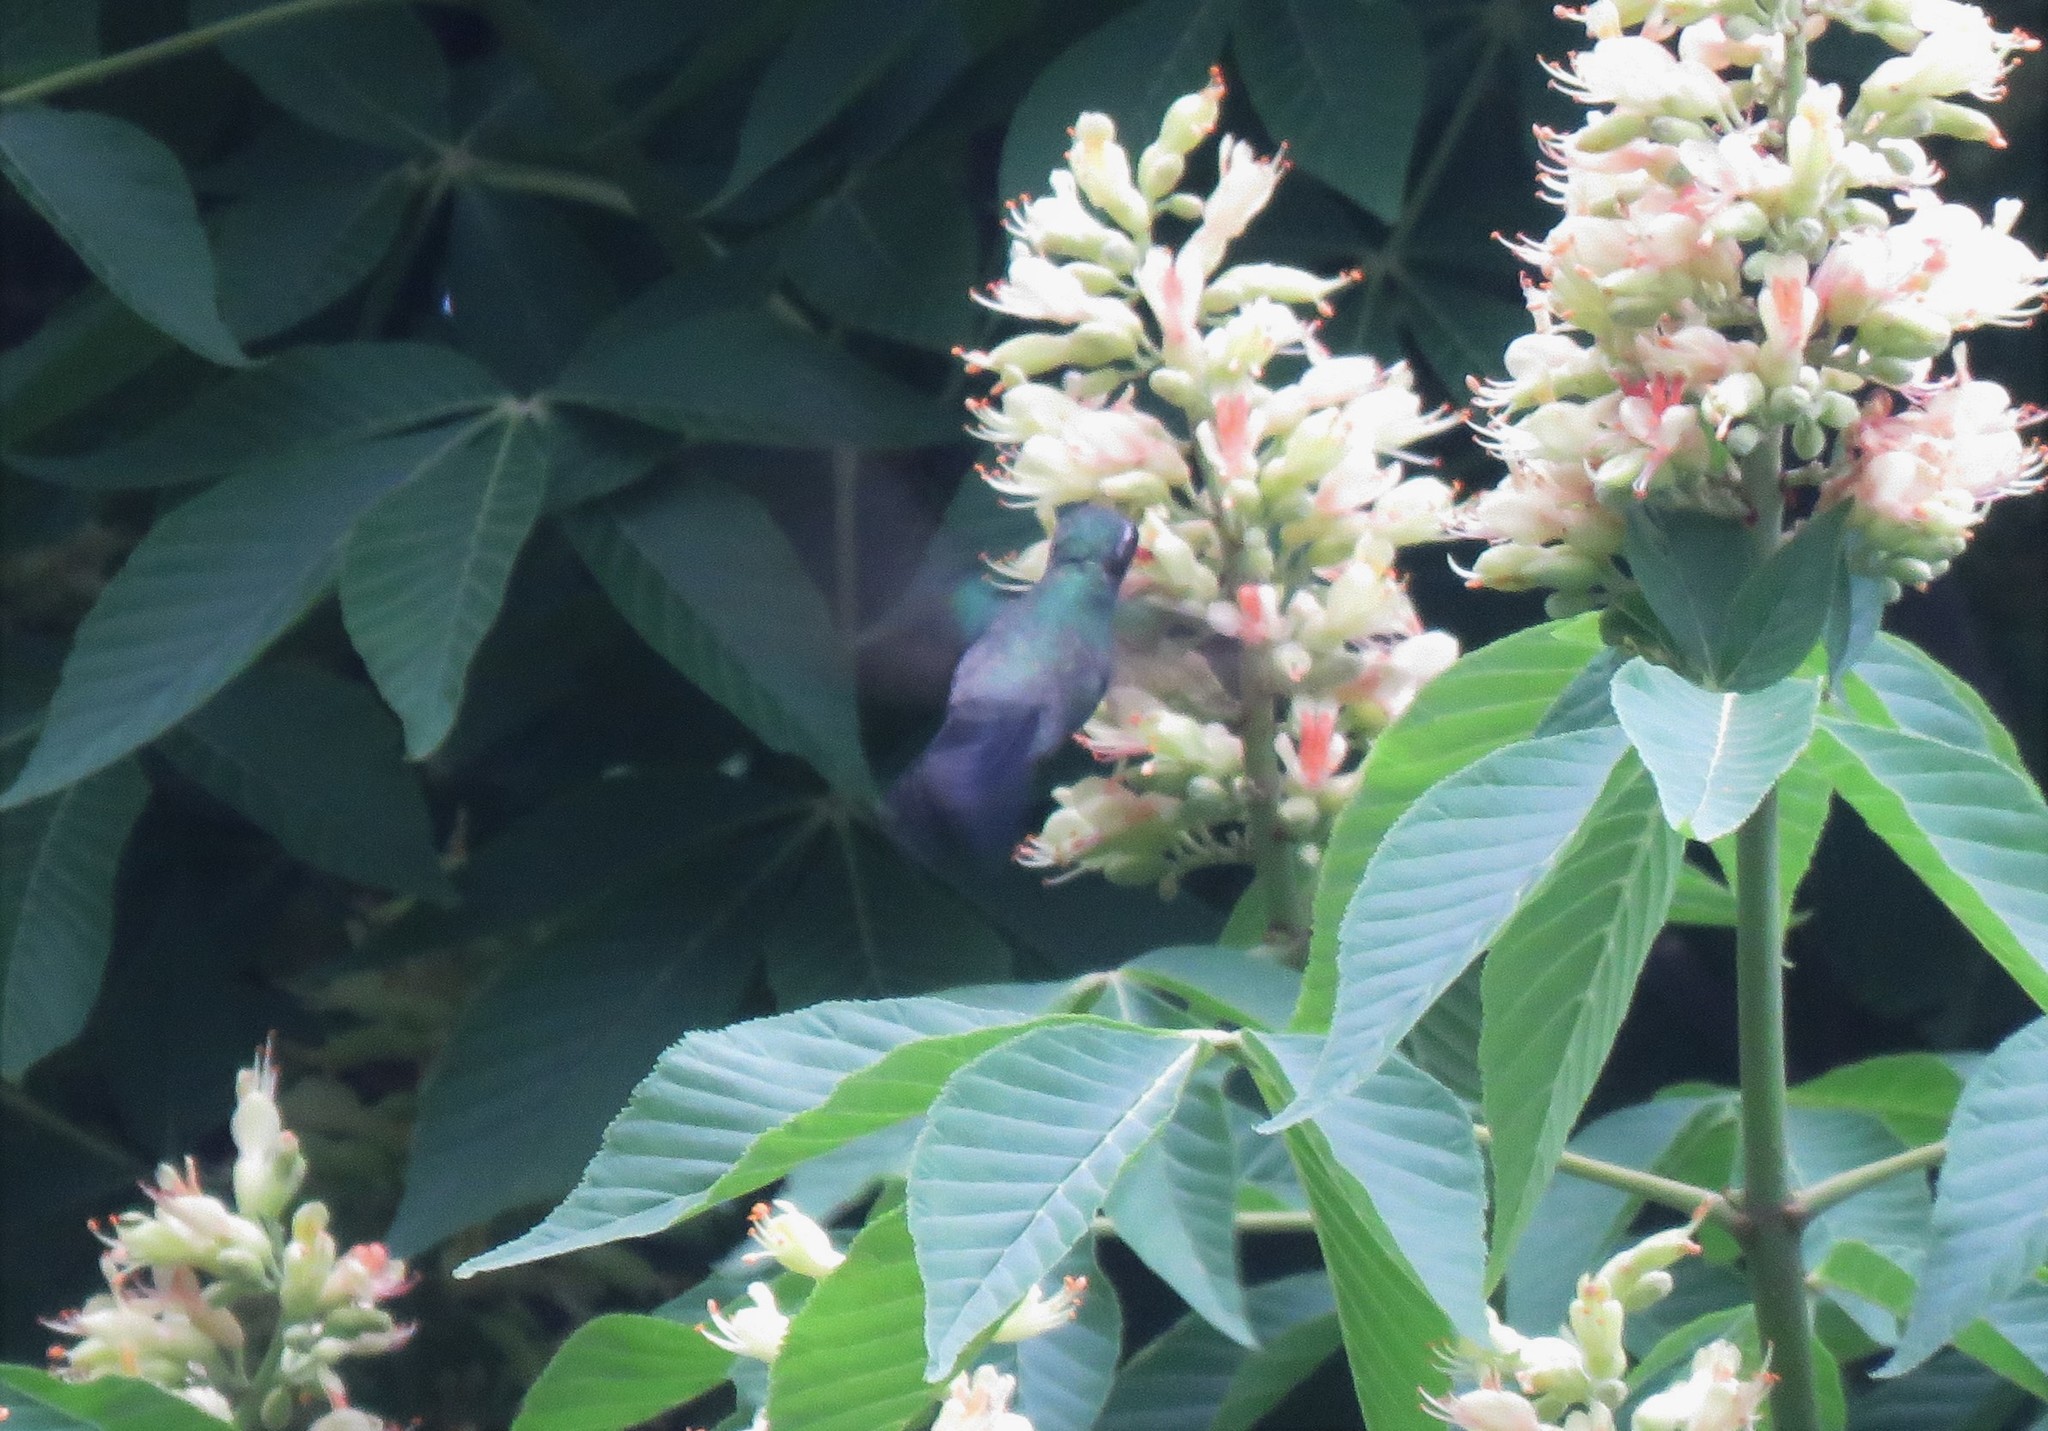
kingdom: Animalia
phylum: Chordata
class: Aves
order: Apodiformes
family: Trochilidae
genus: Cynanthus
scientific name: Cynanthus latirostris
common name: Broad-billed hummingbird
